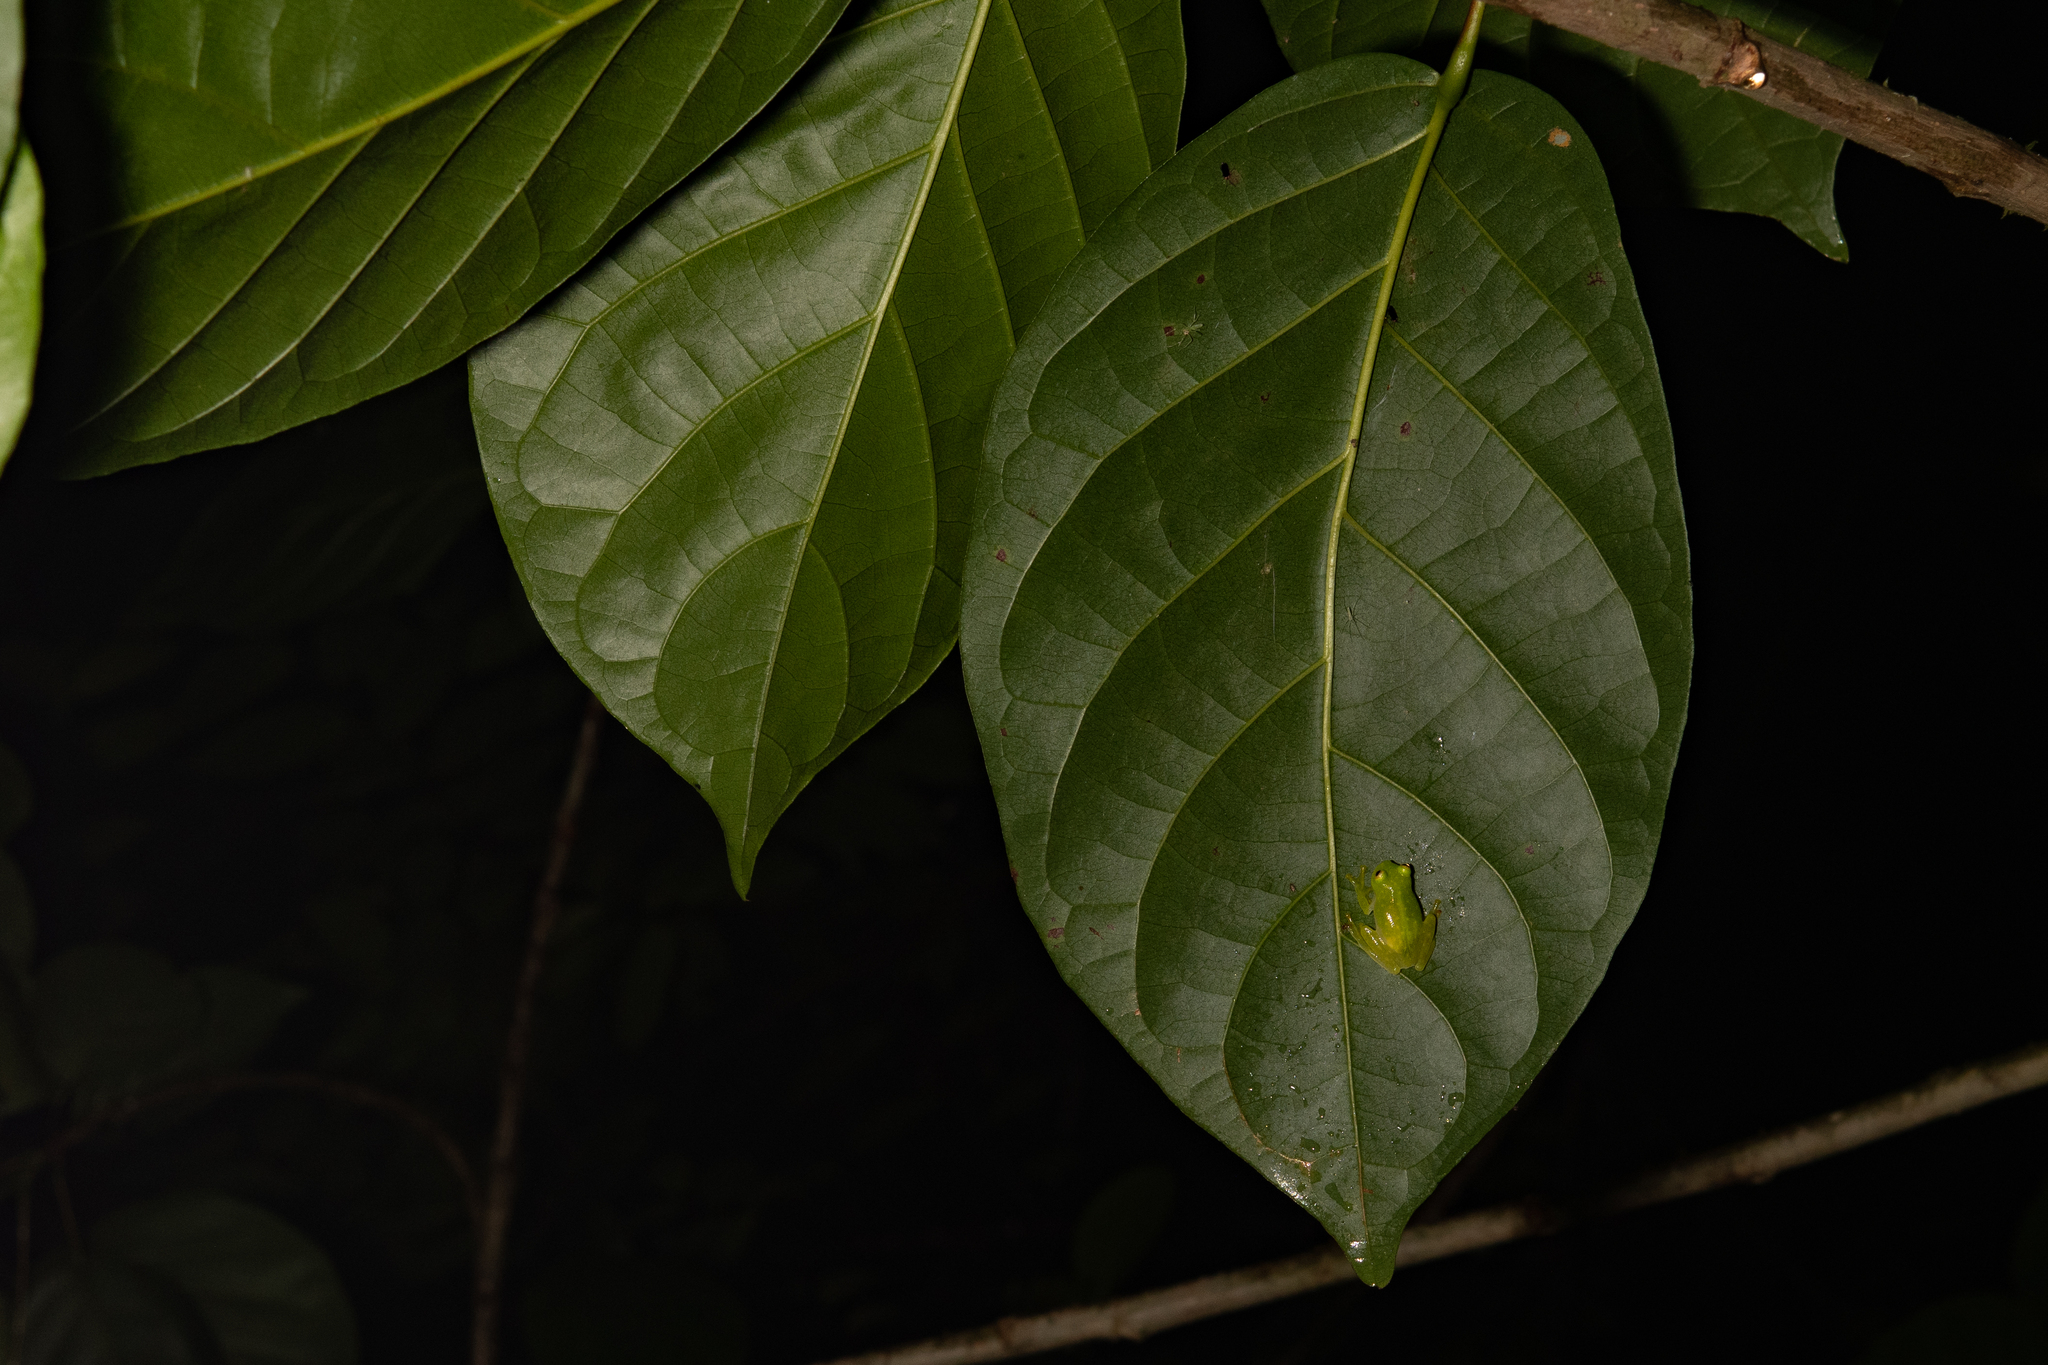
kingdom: Animalia
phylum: Chordata
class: Amphibia
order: Anura
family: Centrolenidae
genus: Hyalinobatrachium
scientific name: Hyalinobatrachium
